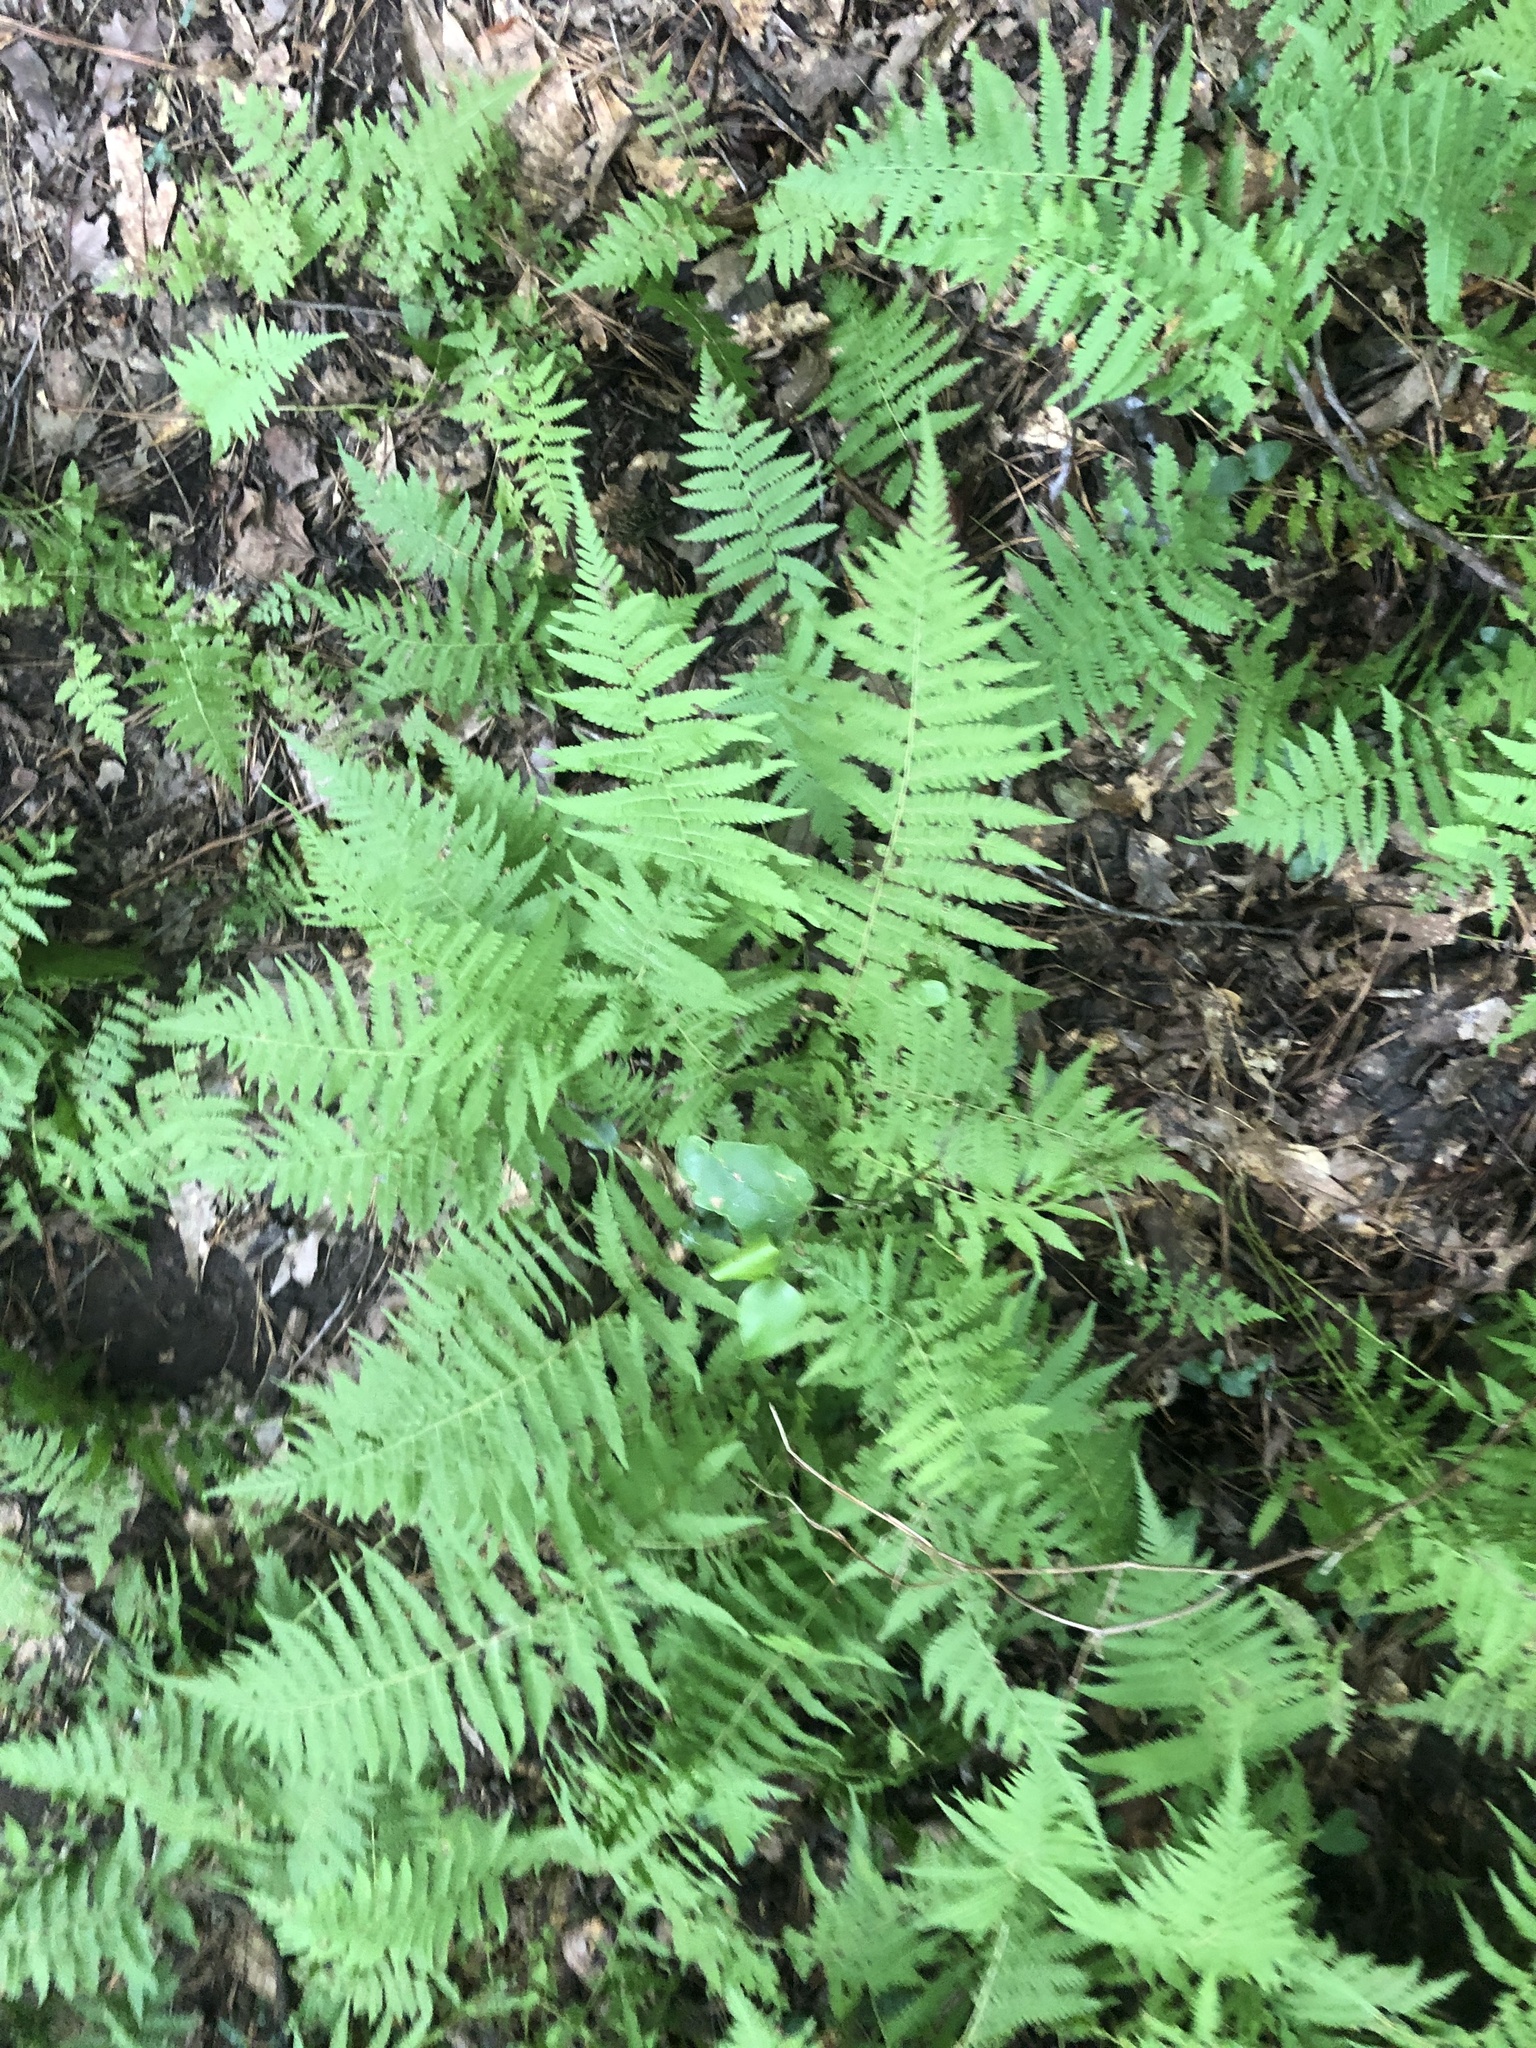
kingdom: Plantae
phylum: Tracheophyta
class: Polypodiopsida
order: Polypodiales
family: Thelypteridaceae
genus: Amauropelta
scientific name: Amauropelta noveboracensis
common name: New york fern
